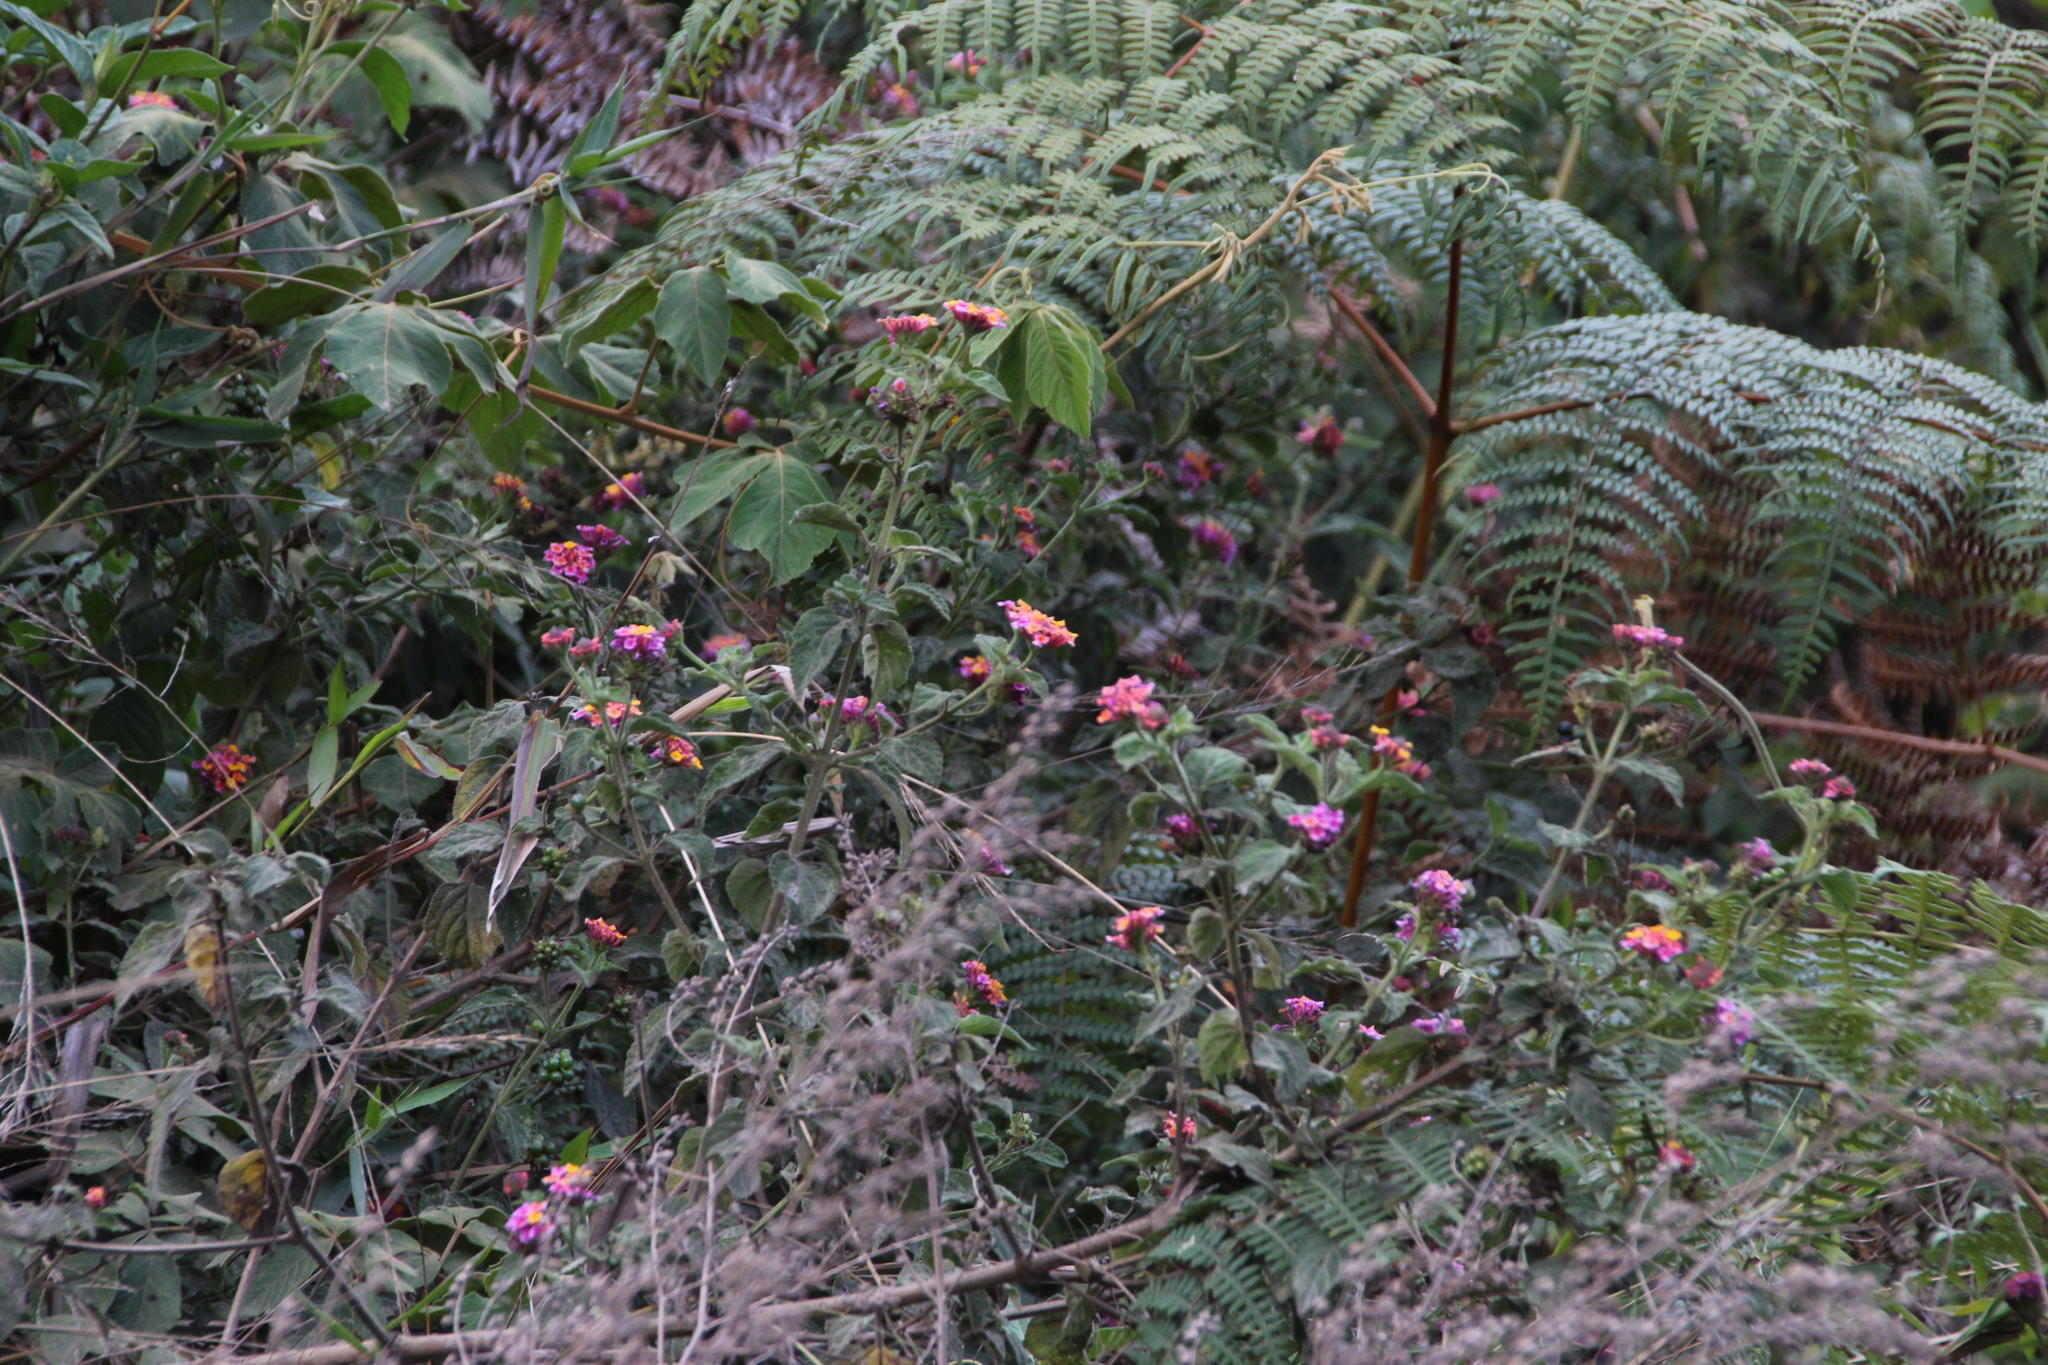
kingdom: Plantae
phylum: Tracheophyta
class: Magnoliopsida
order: Lamiales
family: Verbenaceae
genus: Lantana
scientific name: Lantana camara
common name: Lantana
